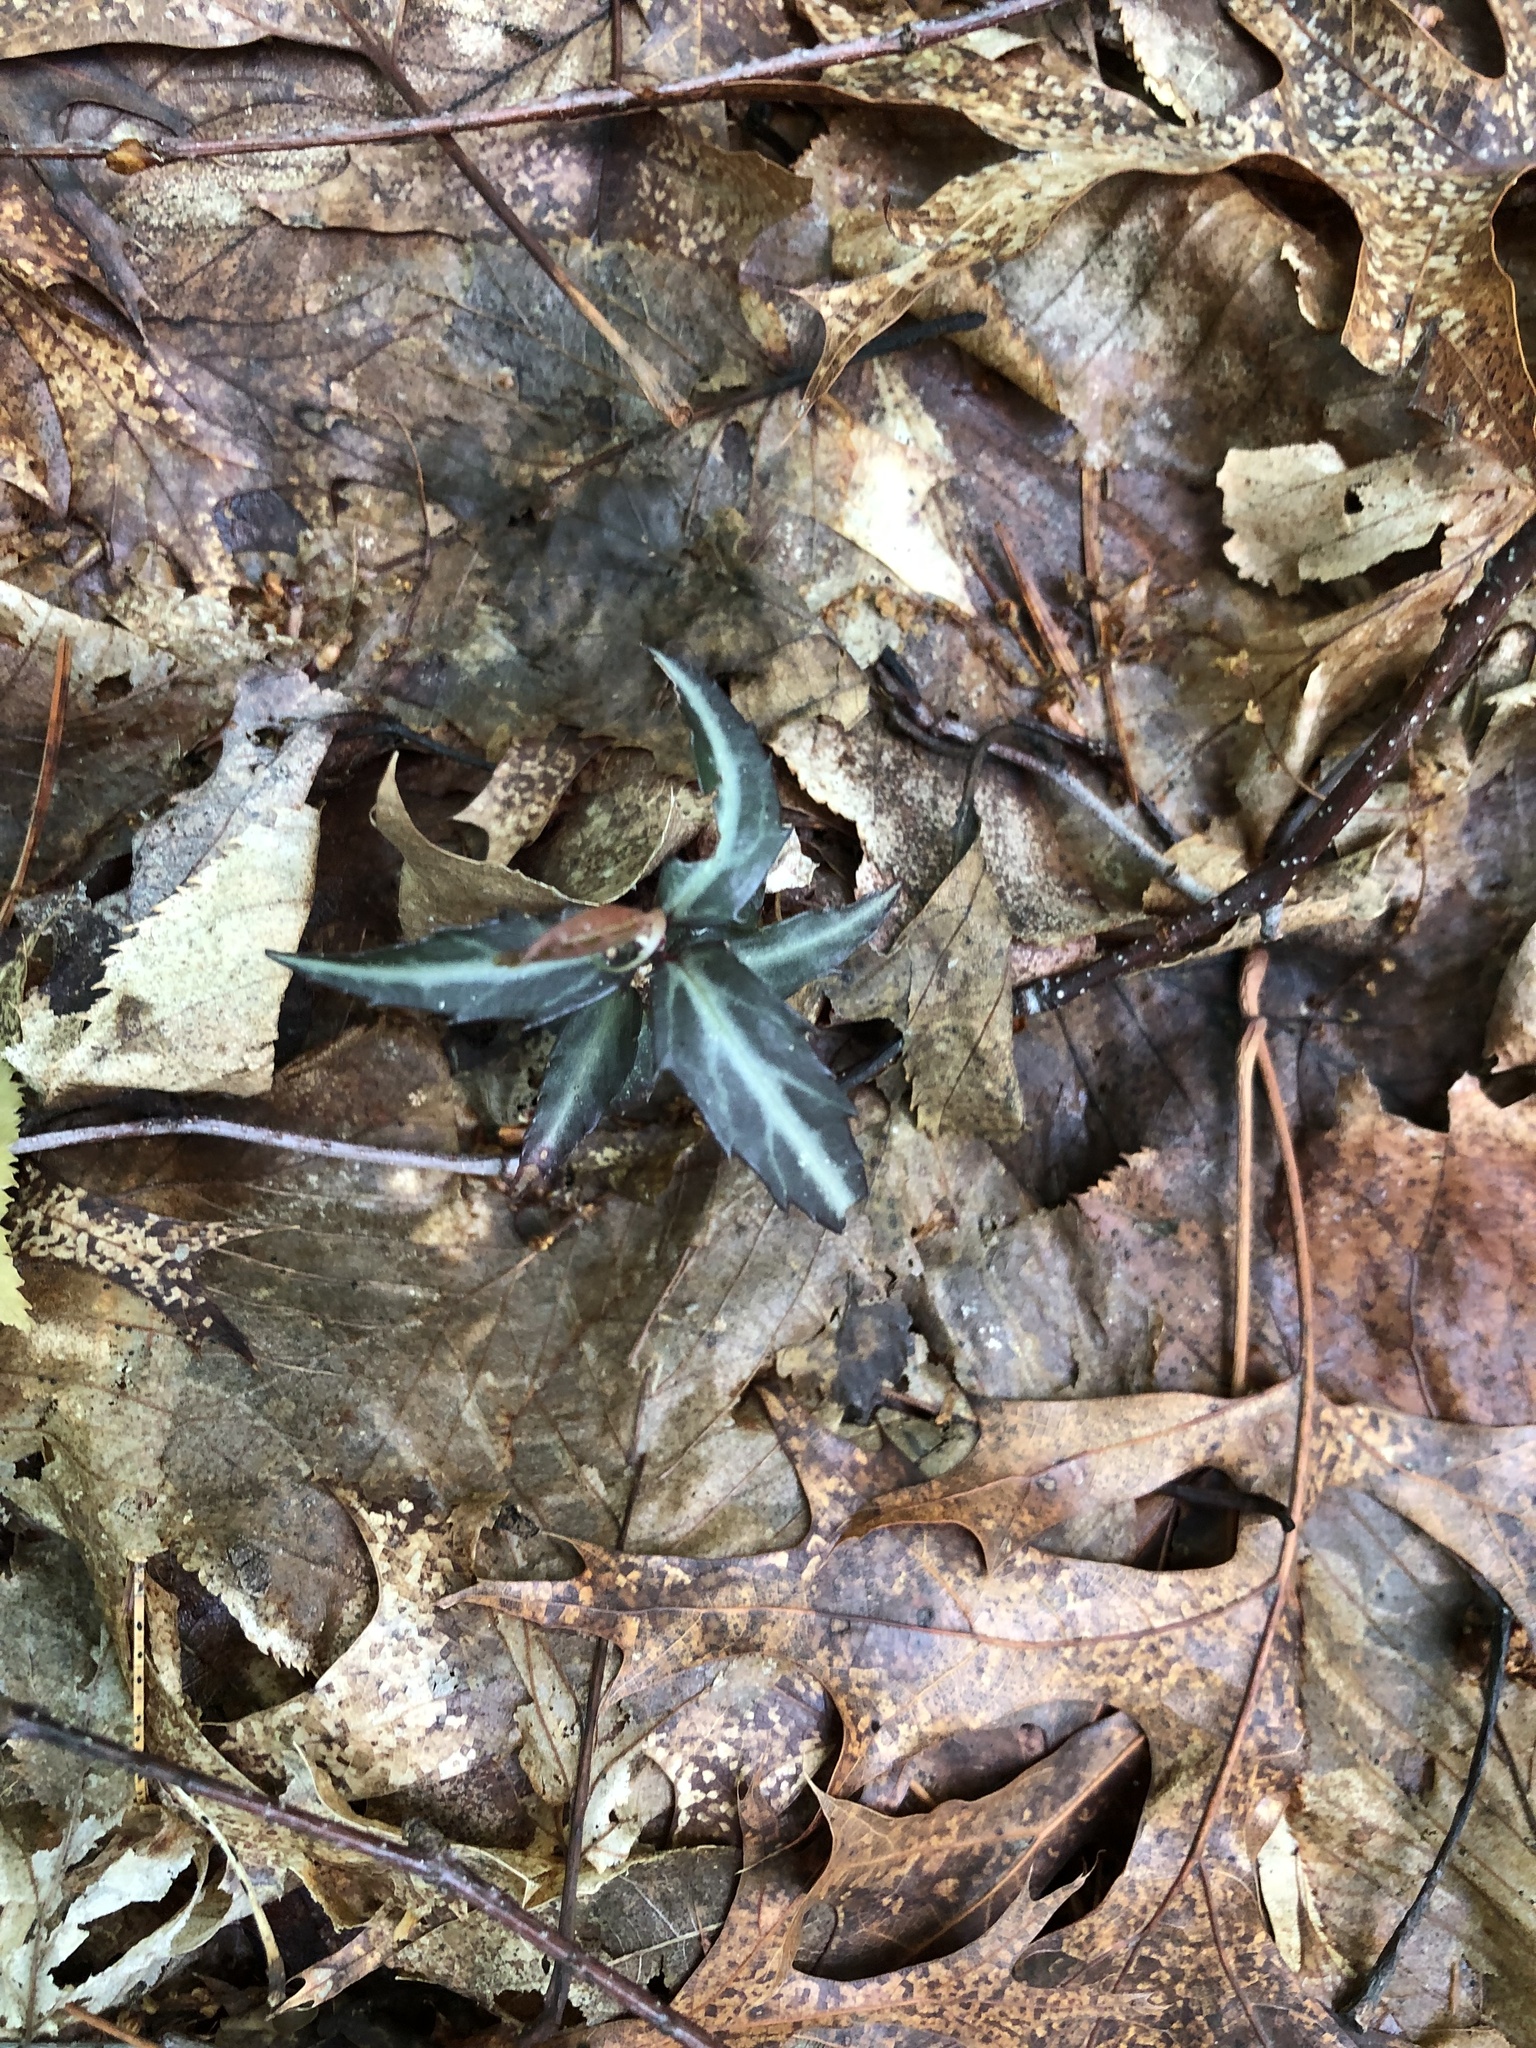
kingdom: Plantae
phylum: Tracheophyta
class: Magnoliopsida
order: Ericales
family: Ericaceae
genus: Chimaphila
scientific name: Chimaphila maculata
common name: Spotted pipsissewa
